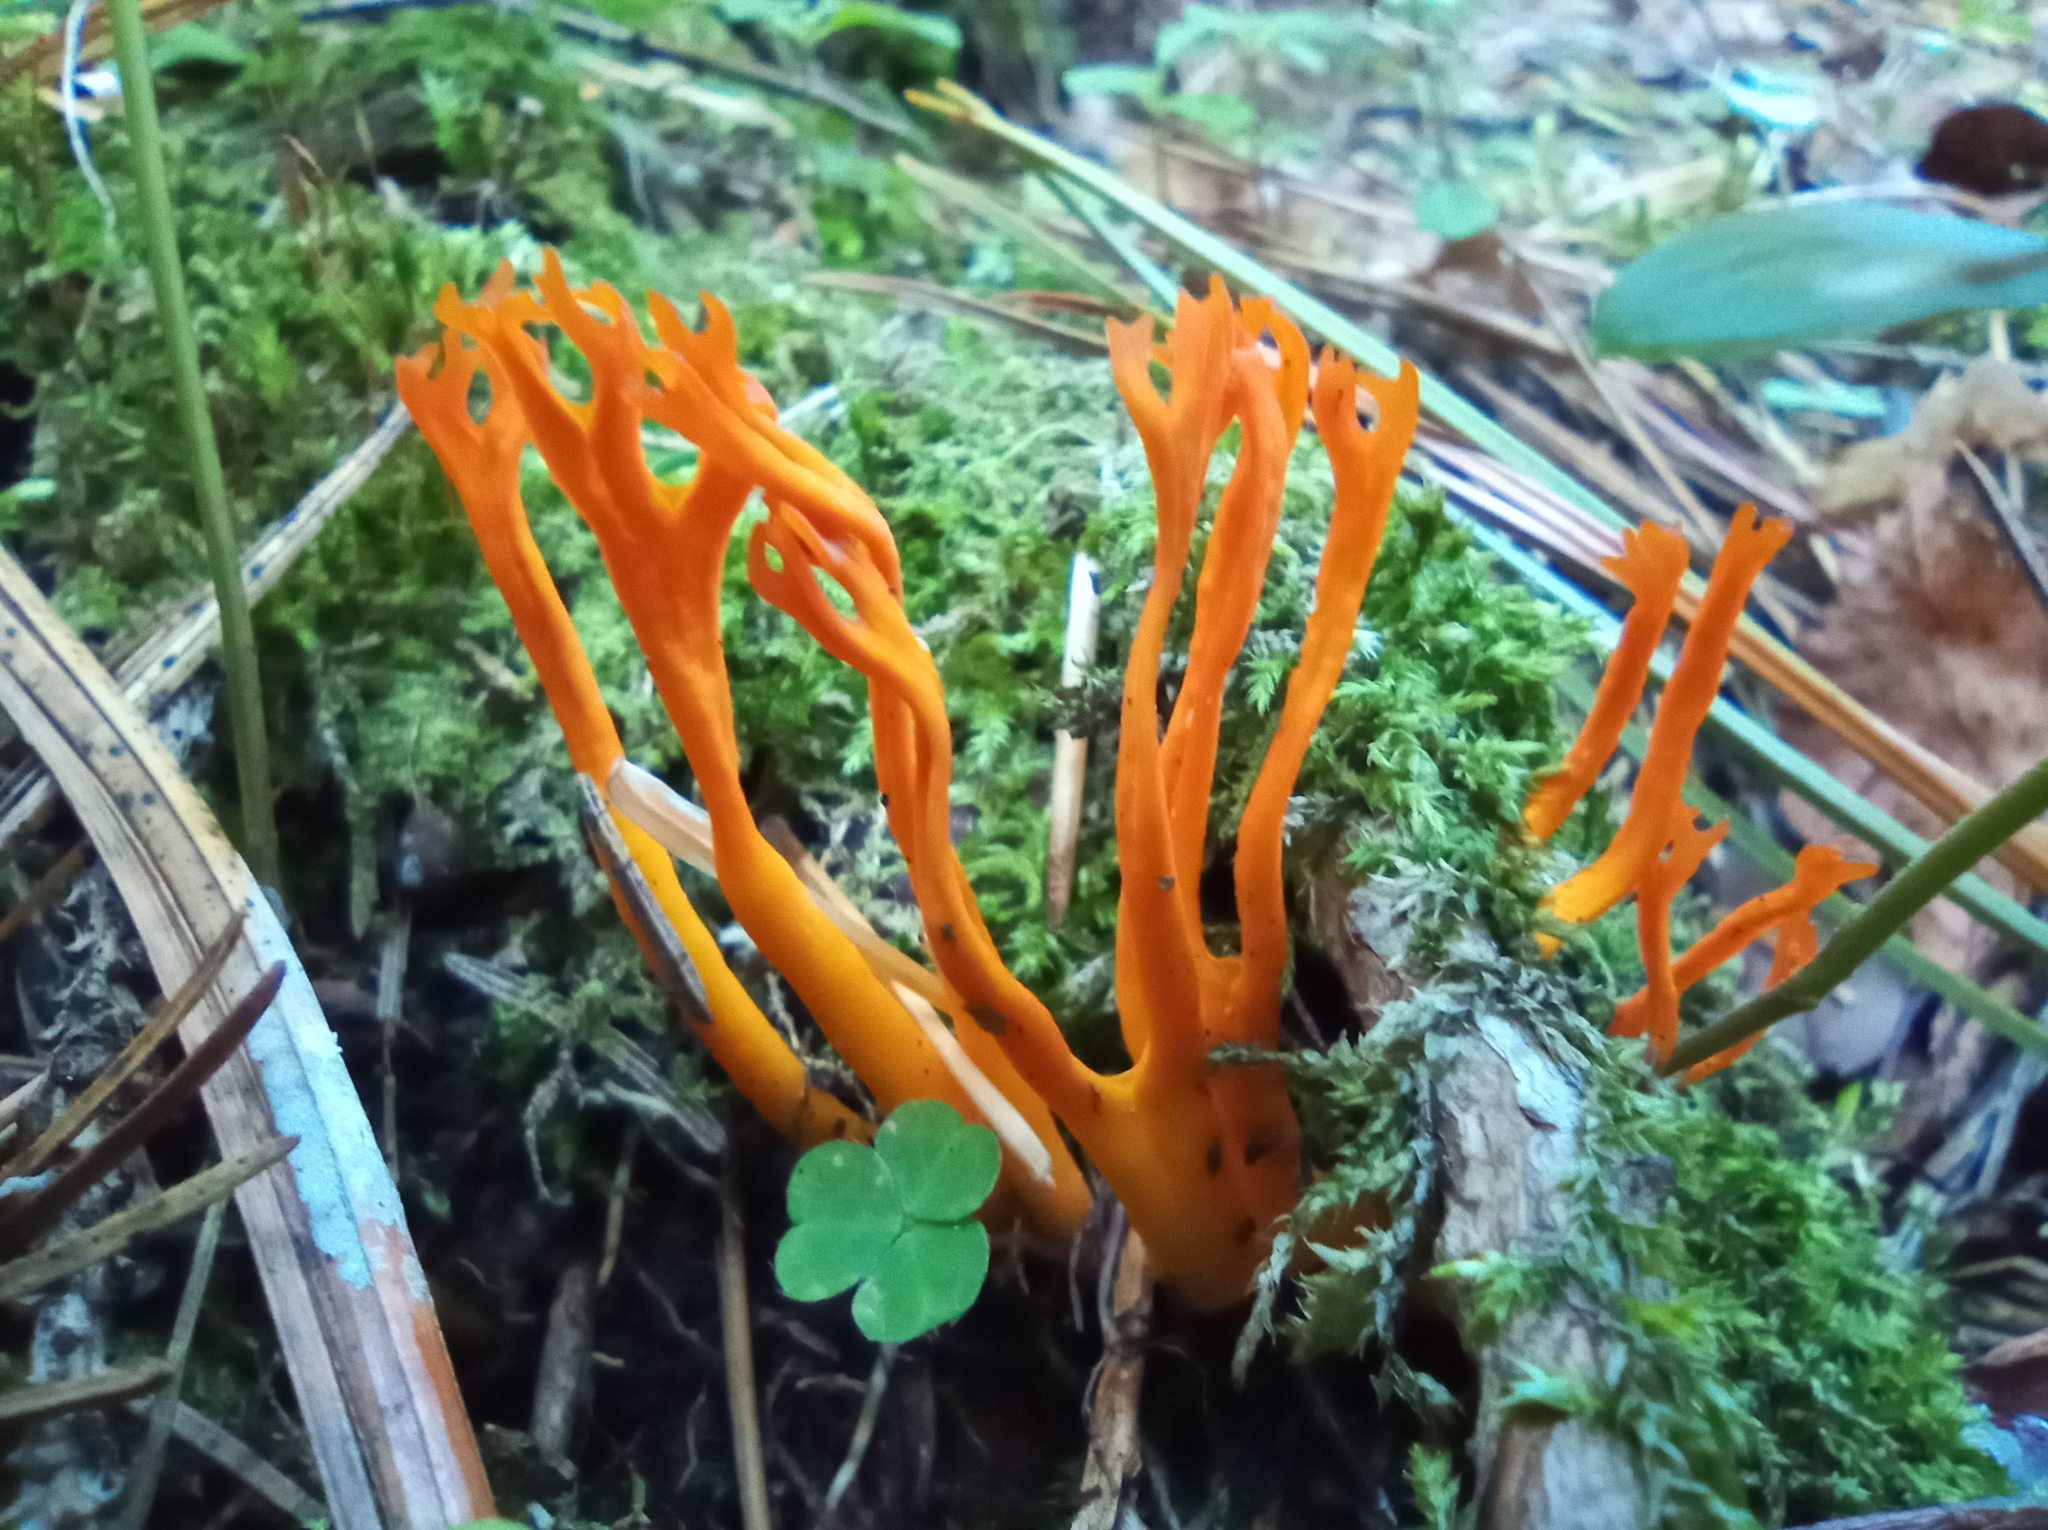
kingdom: Fungi
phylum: Basidiomycota
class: Dacrymycetes
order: Dacrymycetales
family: Dacrymycetaceae
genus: Calocera
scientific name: Calocera viscosa
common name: Yellow stagshorn
